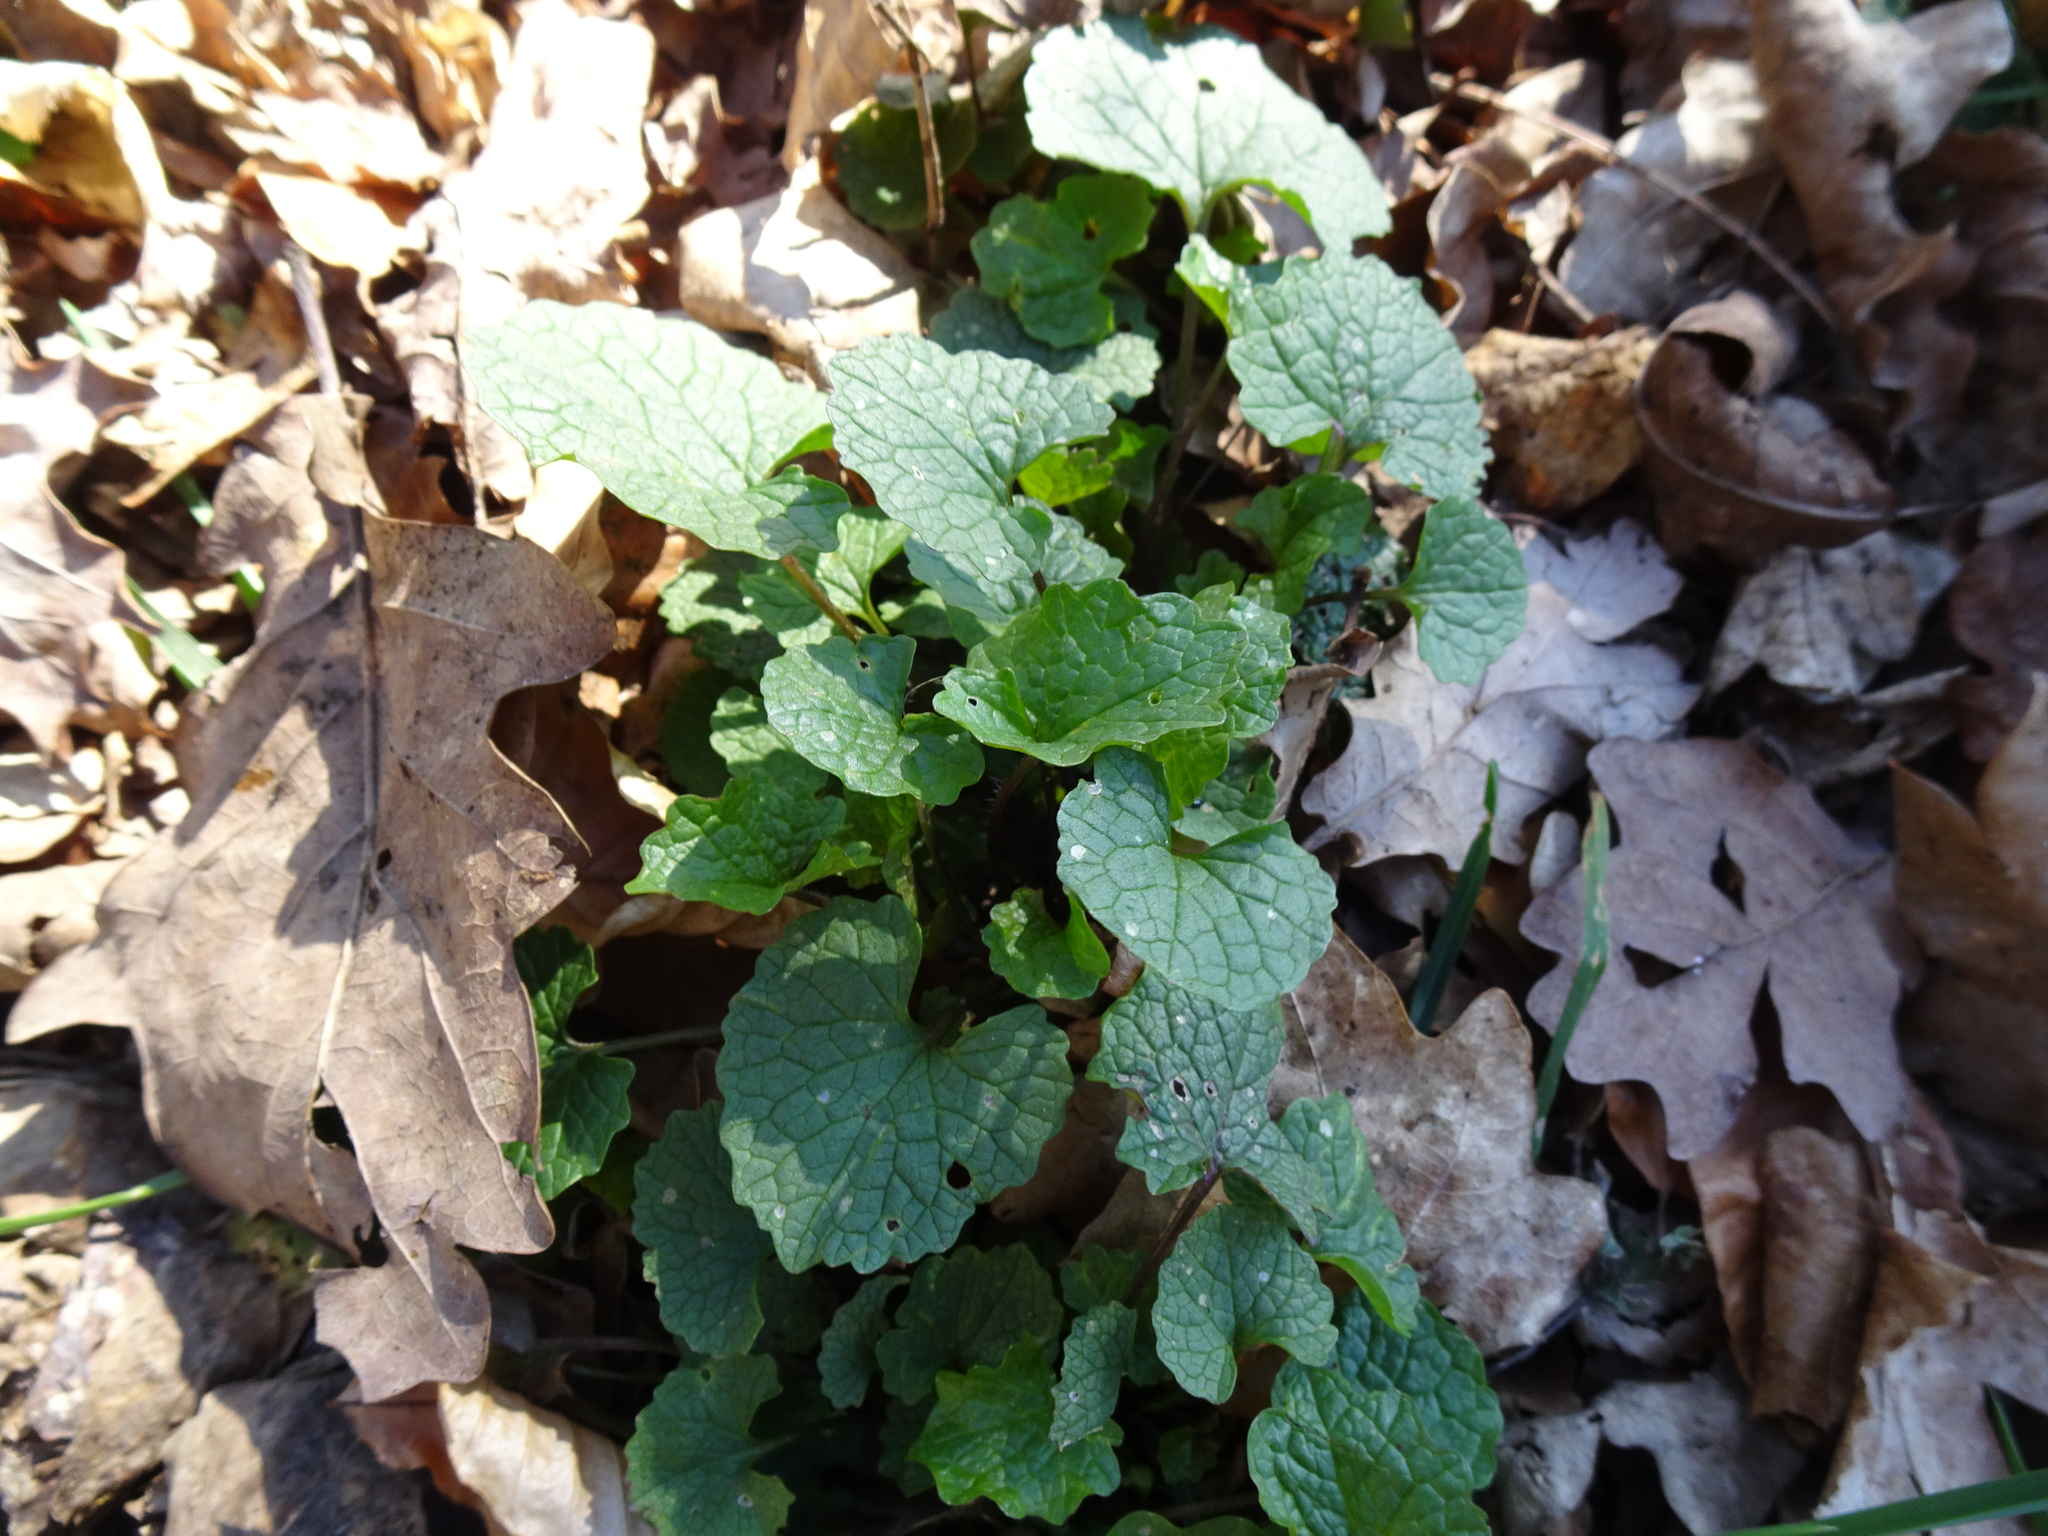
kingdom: Plantae
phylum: Tracheophyta
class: Magnoliopsida
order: Brassicales
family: Brassicaceae
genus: Alliaria
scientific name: Alliaria petiolata
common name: Garlic mustard
